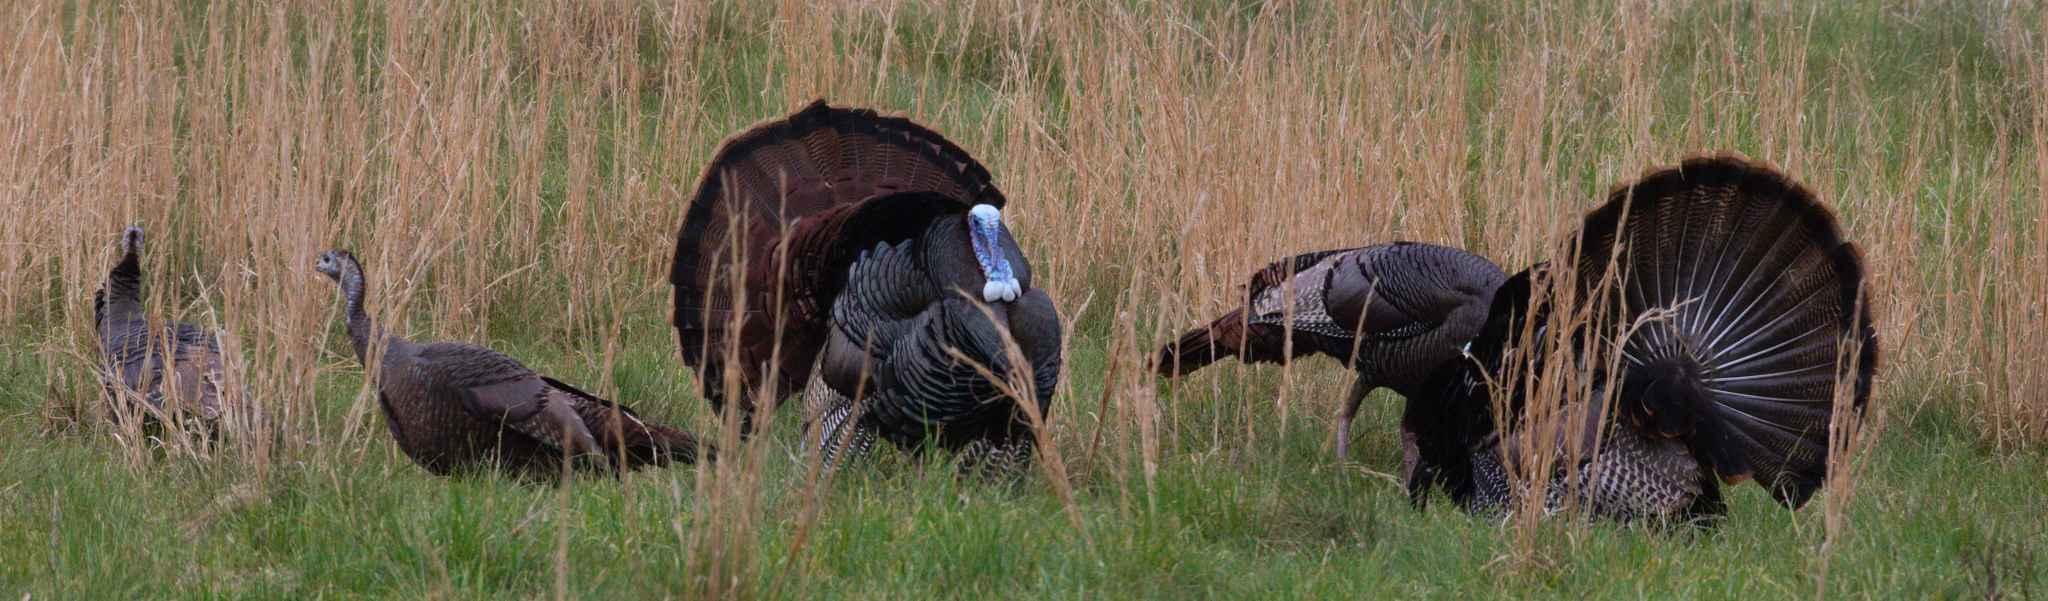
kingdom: Animalia
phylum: Chordata
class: Aves
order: Galliformes
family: Phasianidae
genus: Meleagris
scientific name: Meleagris gallopavo
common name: Wild turkey
